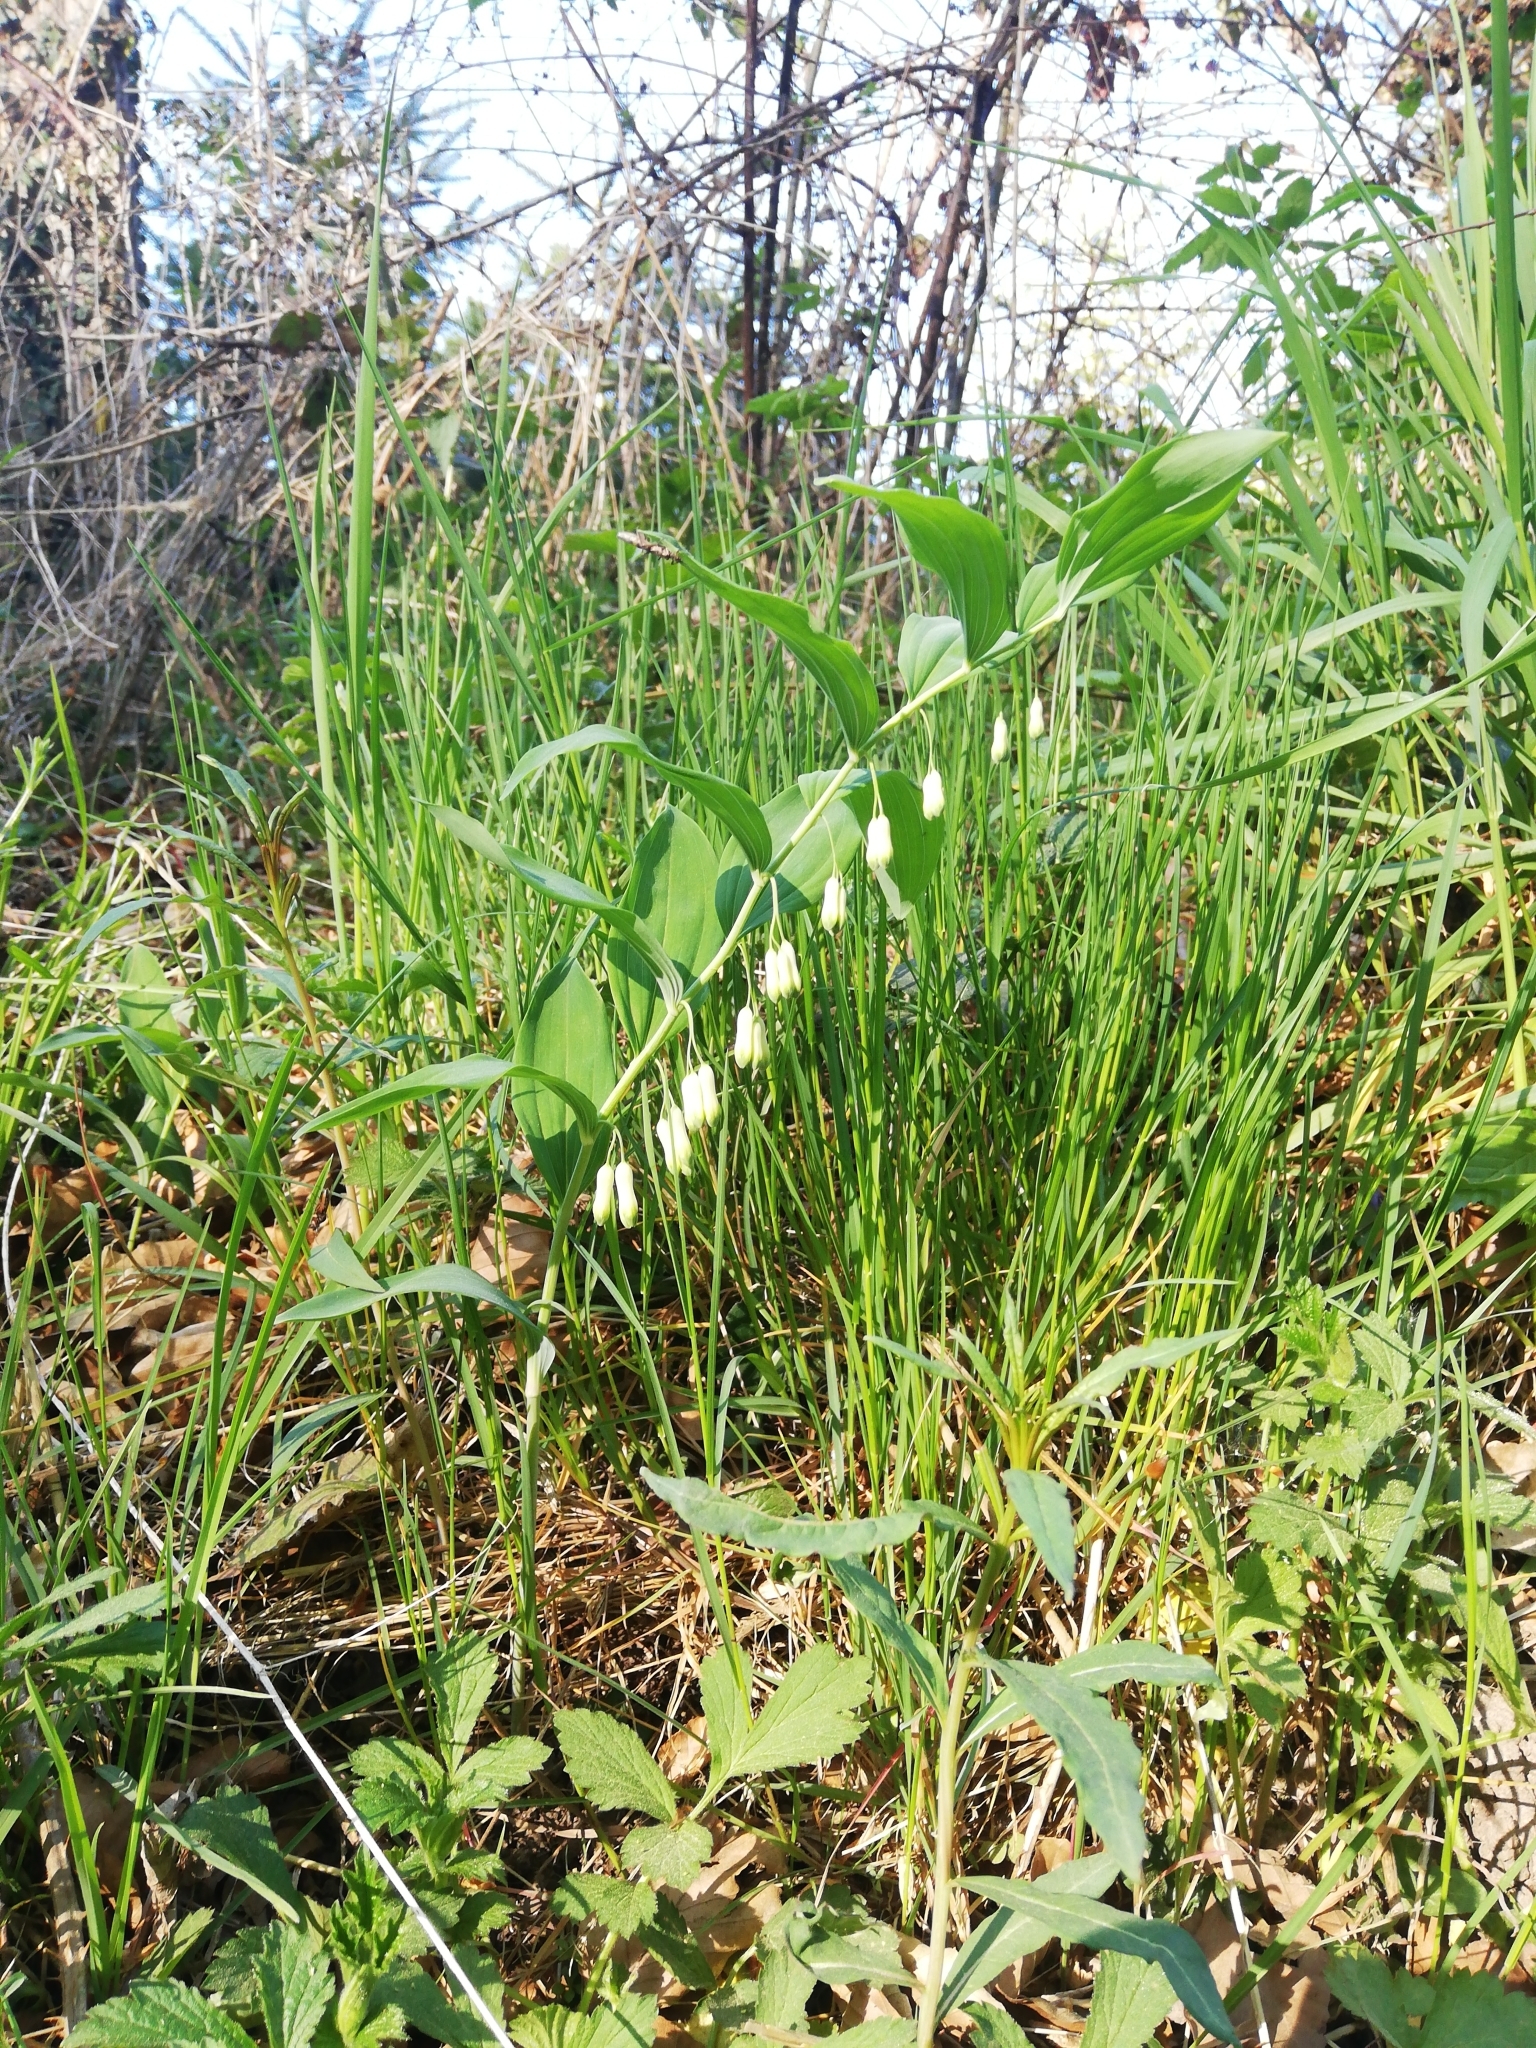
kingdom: Plantae
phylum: Tracheophyta
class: Liliopsida
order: Asparagales
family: Asparagaceae
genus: Polygonatum
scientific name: Polygonatum multiflorum
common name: Solomon's-seal
